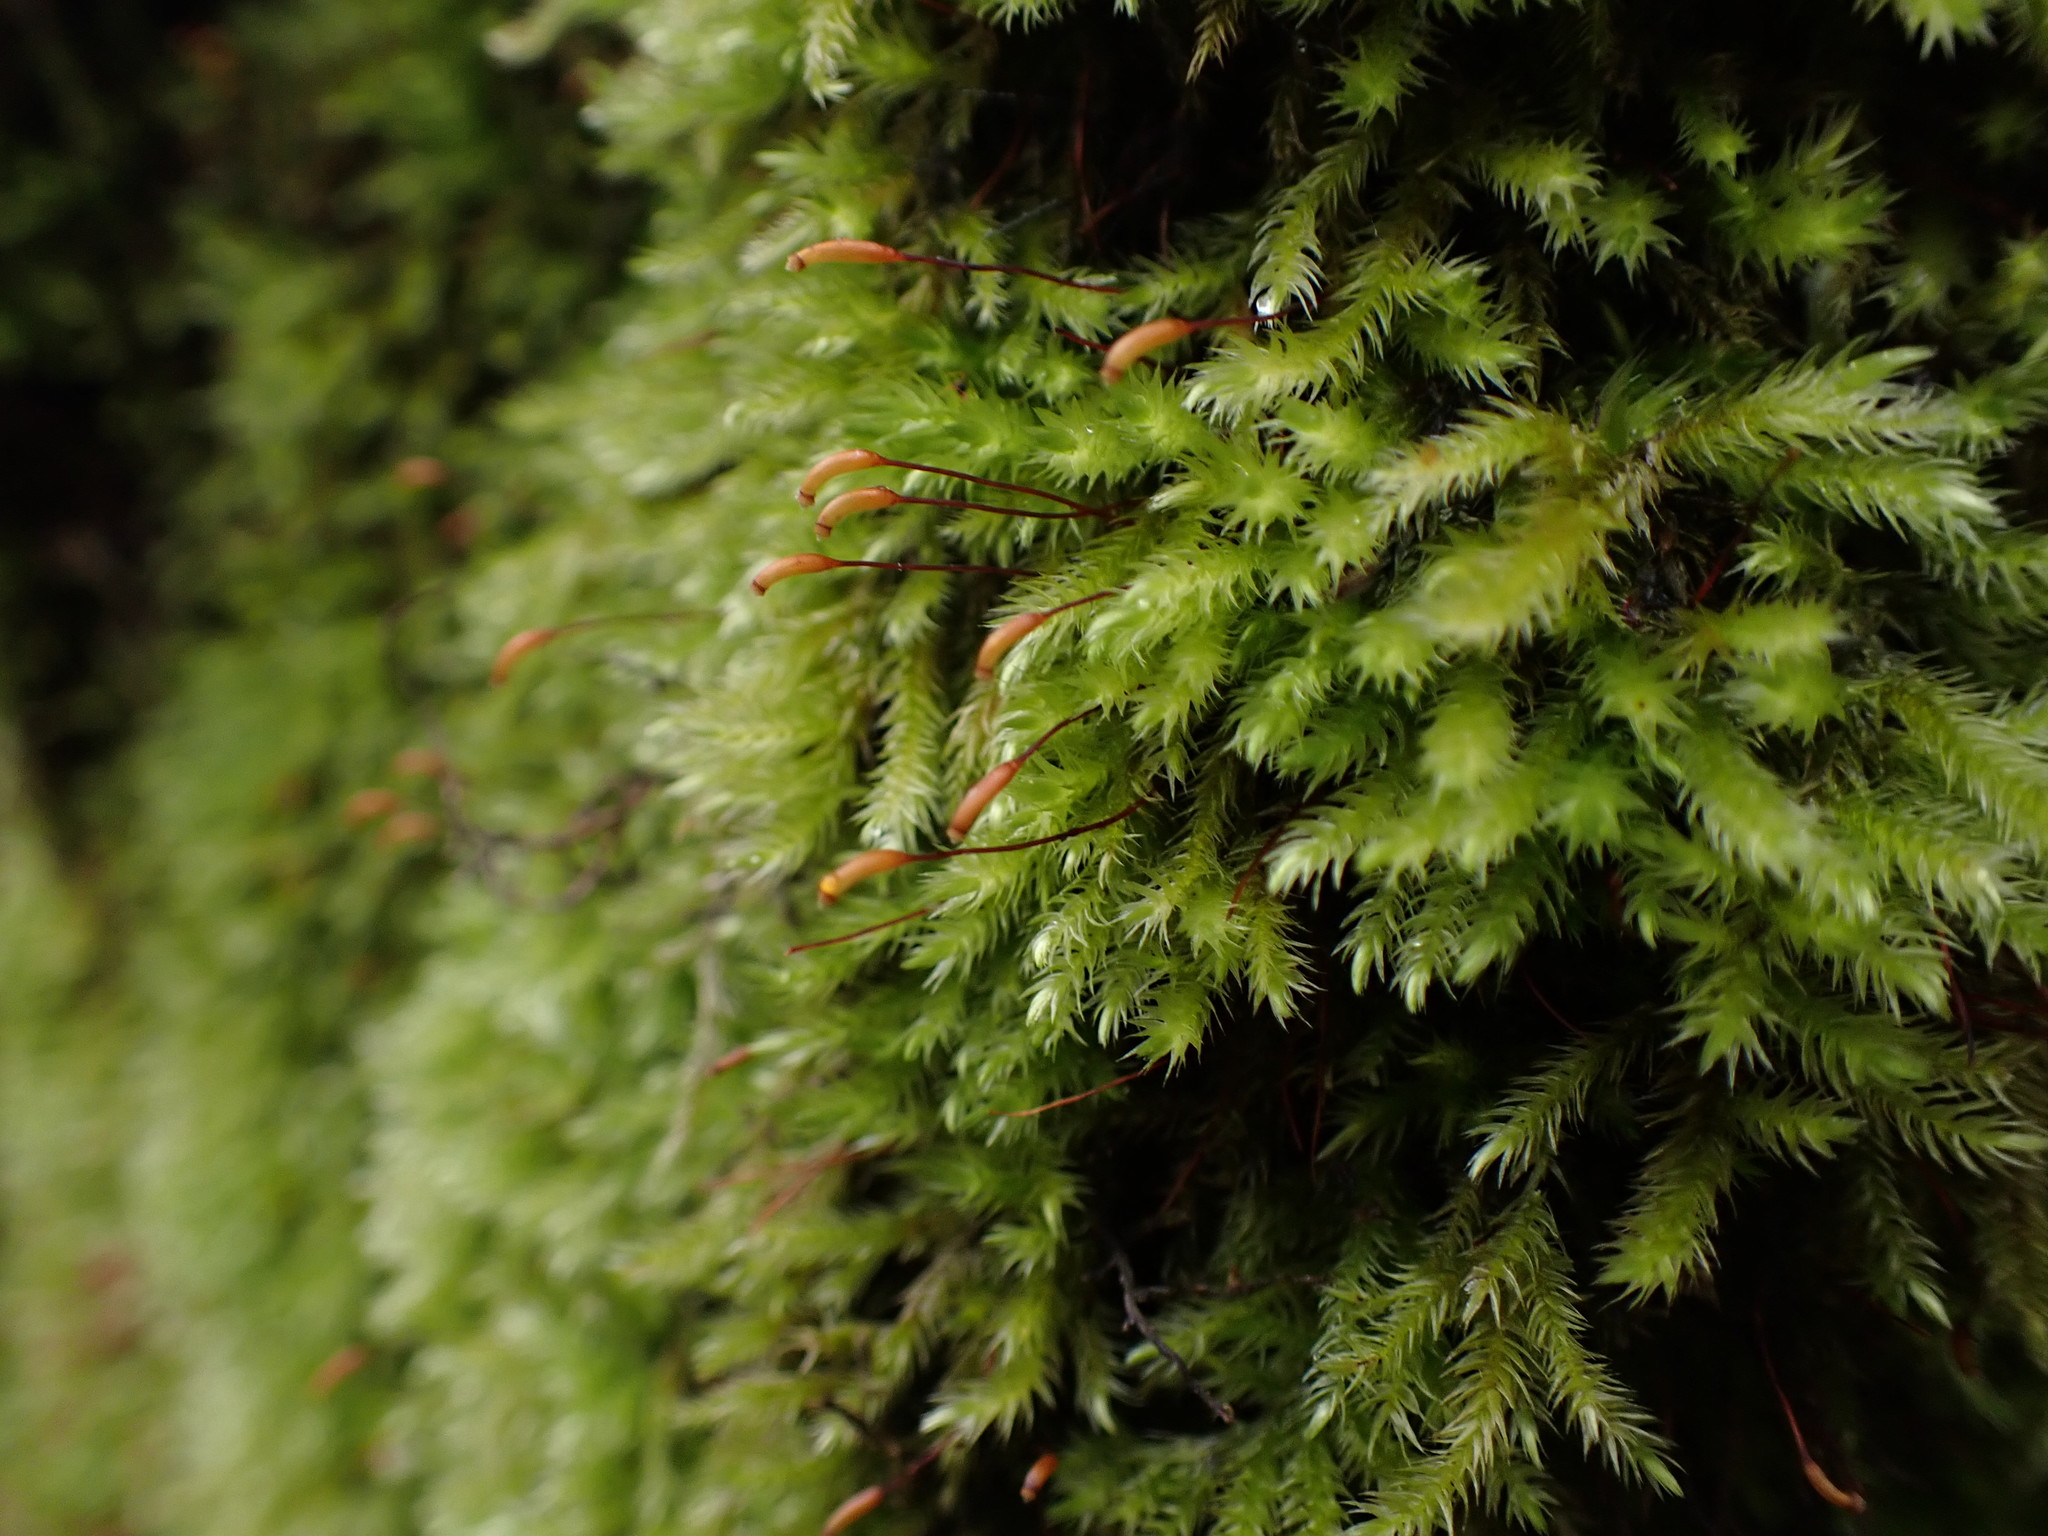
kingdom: Plantae
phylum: Bryophyta
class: Bryopsida
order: Hypnales
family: Brachytheciaceae
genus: Homalothecium
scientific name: Homalothecium fulgescens
